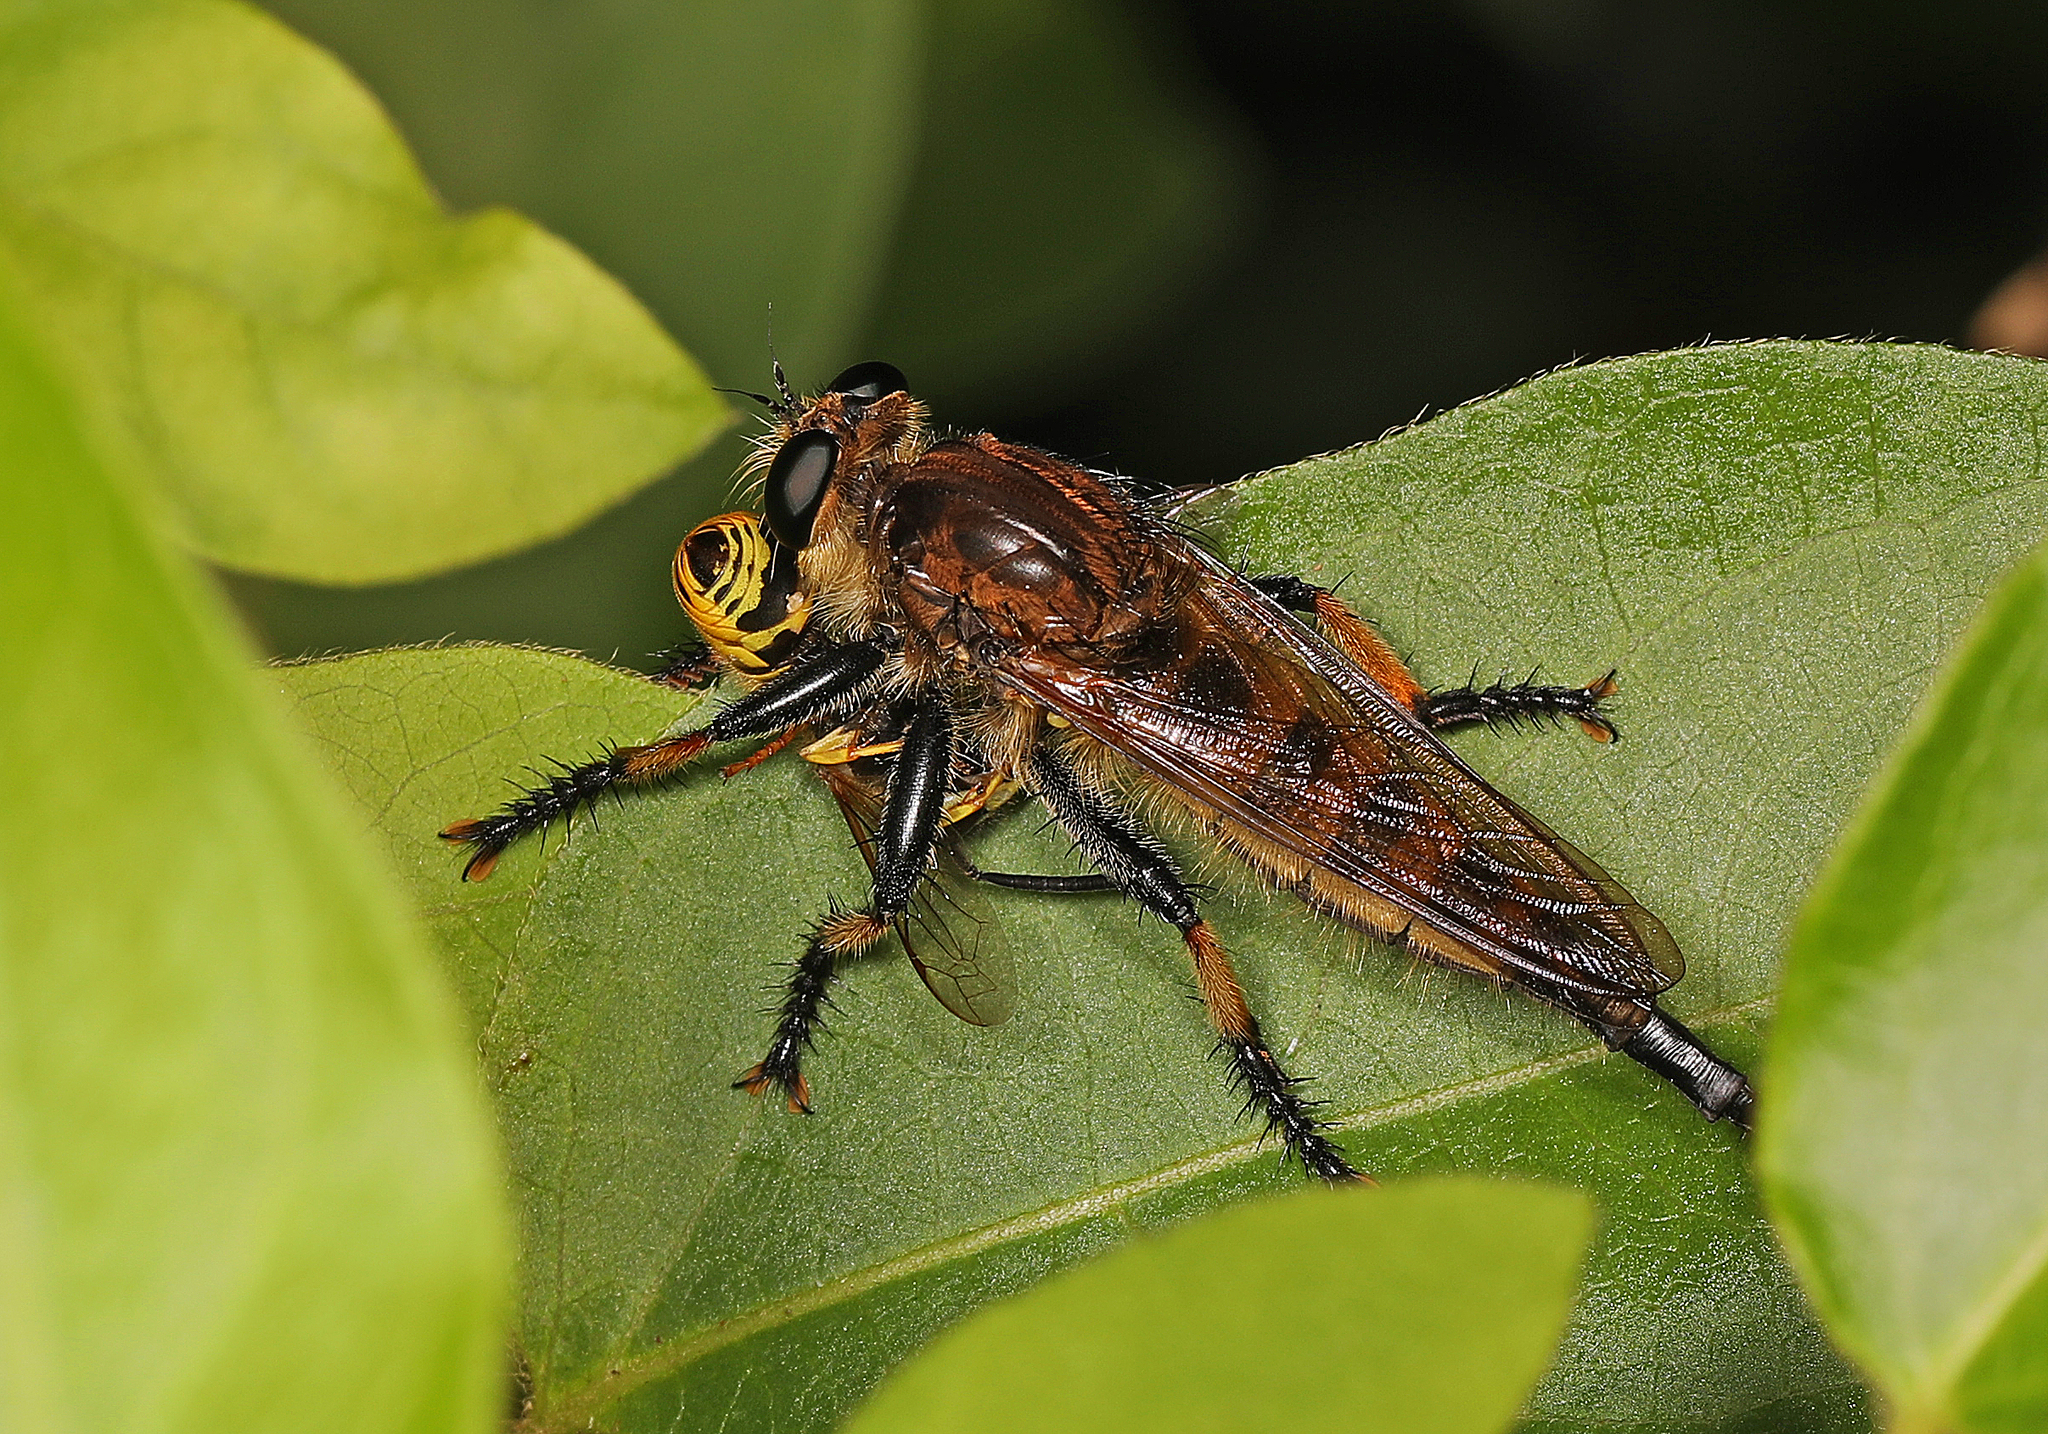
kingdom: Animalia
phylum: Arthropoda
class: Insecta
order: Diptera
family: Asilidae
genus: Promachus
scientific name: Promachus rufipes
